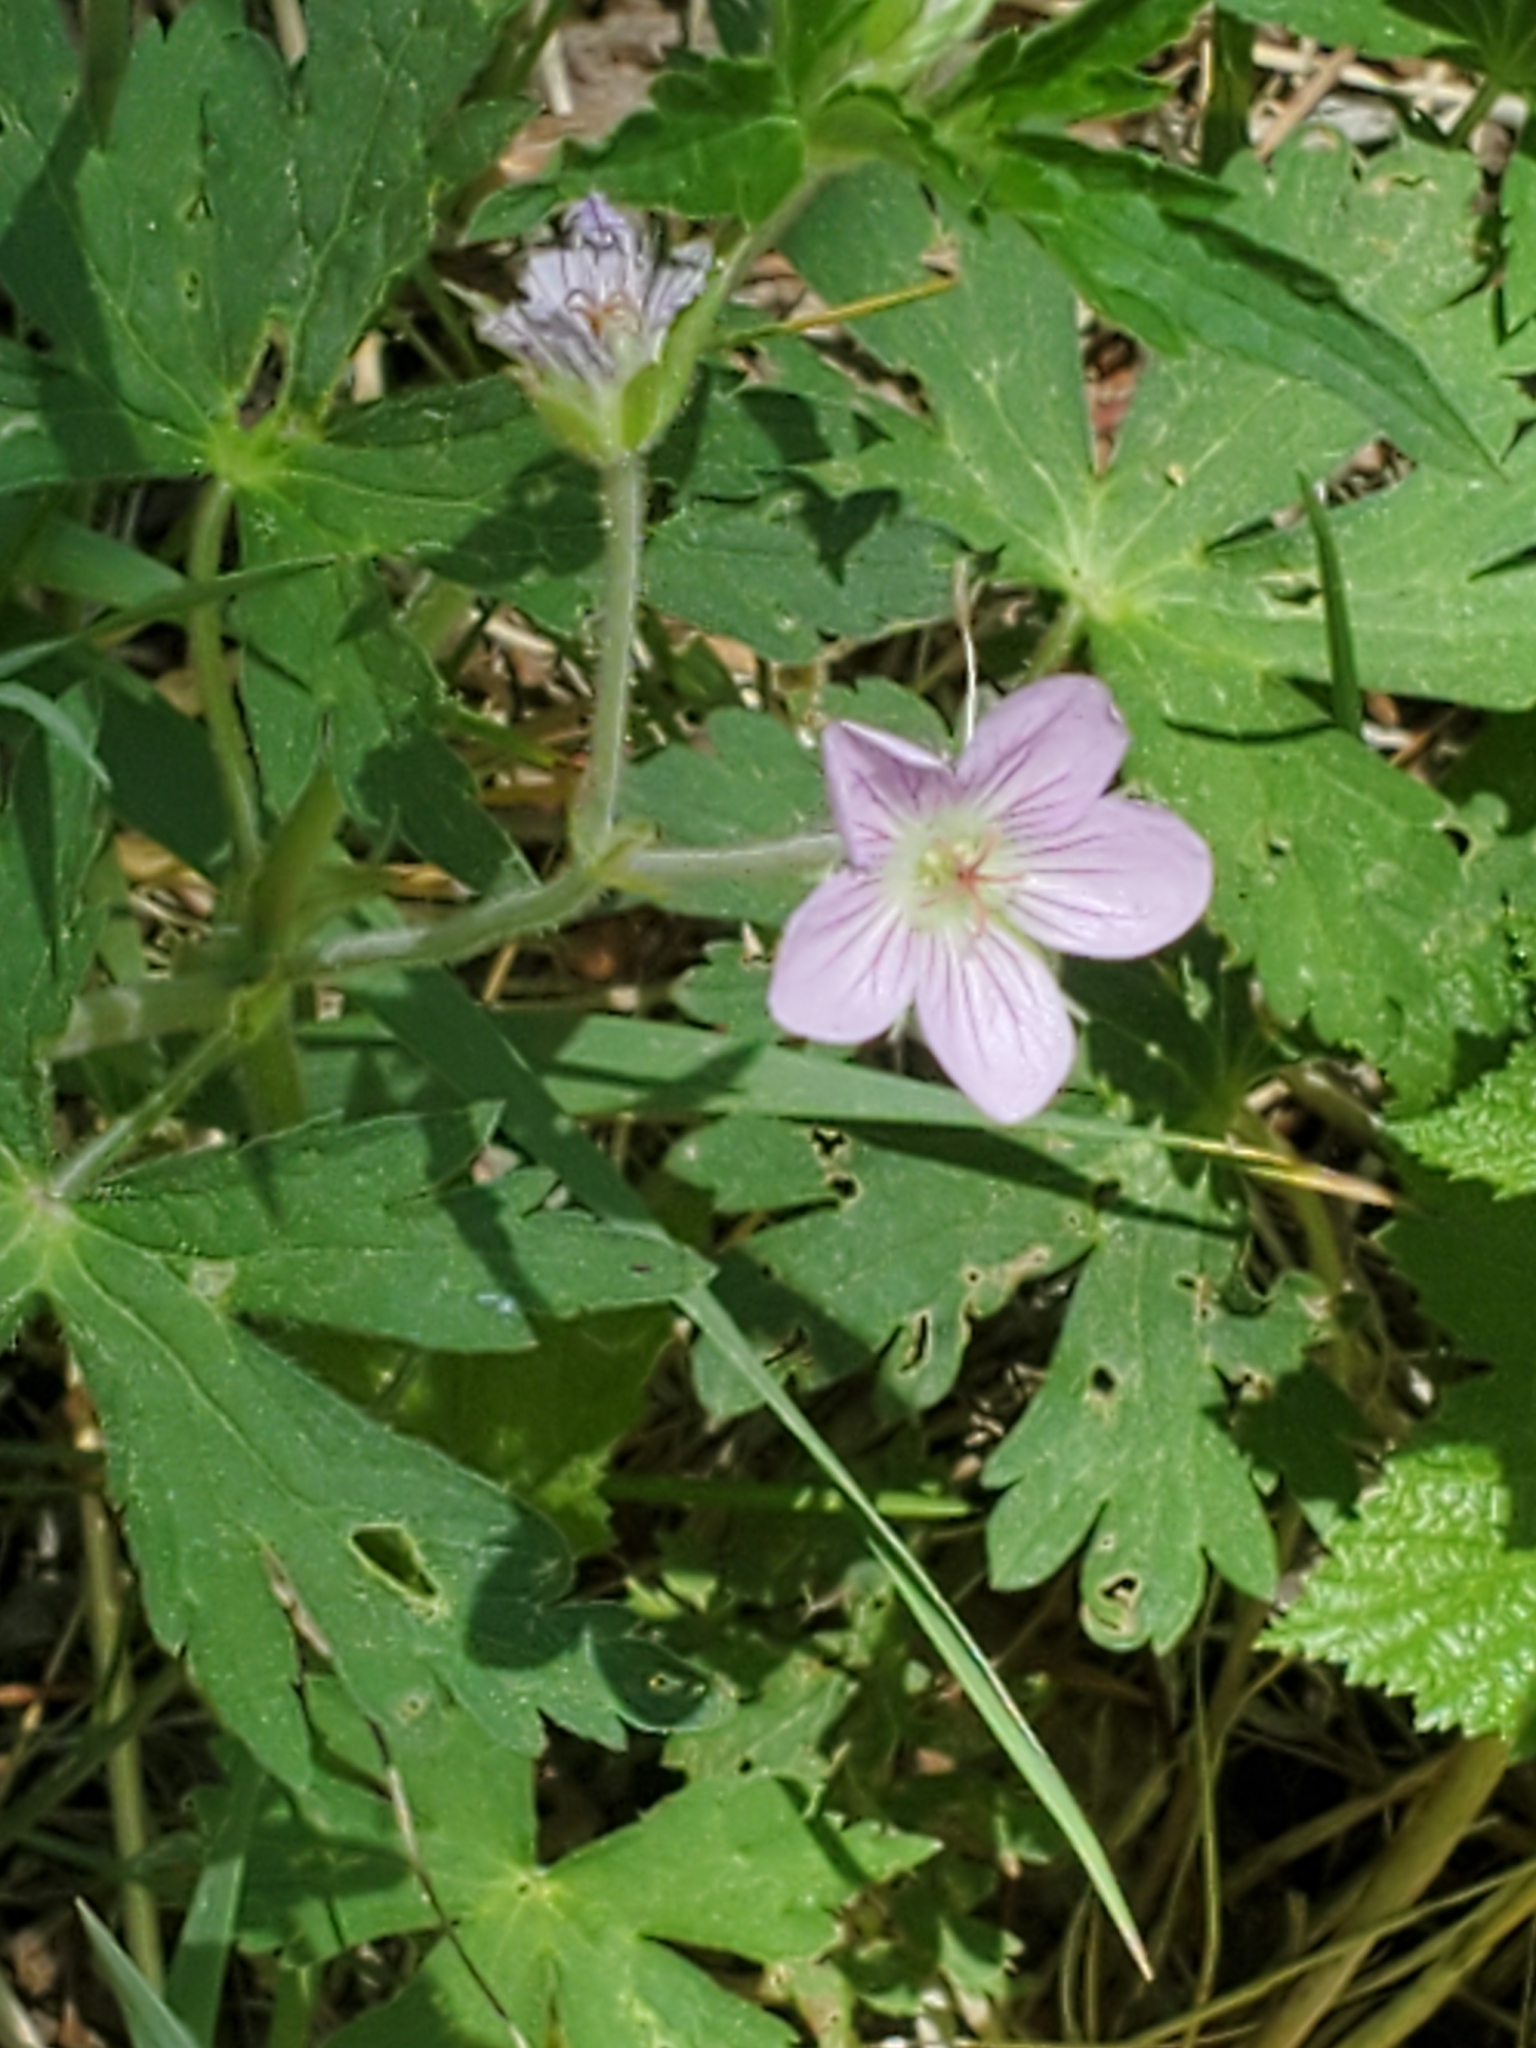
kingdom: Plantae
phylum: Tracheophyta
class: Magnoliopsida
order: Geraniales
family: Geraniaceae
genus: Geranium
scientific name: Geranium richardsonii
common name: Richardson's crane's-bill
